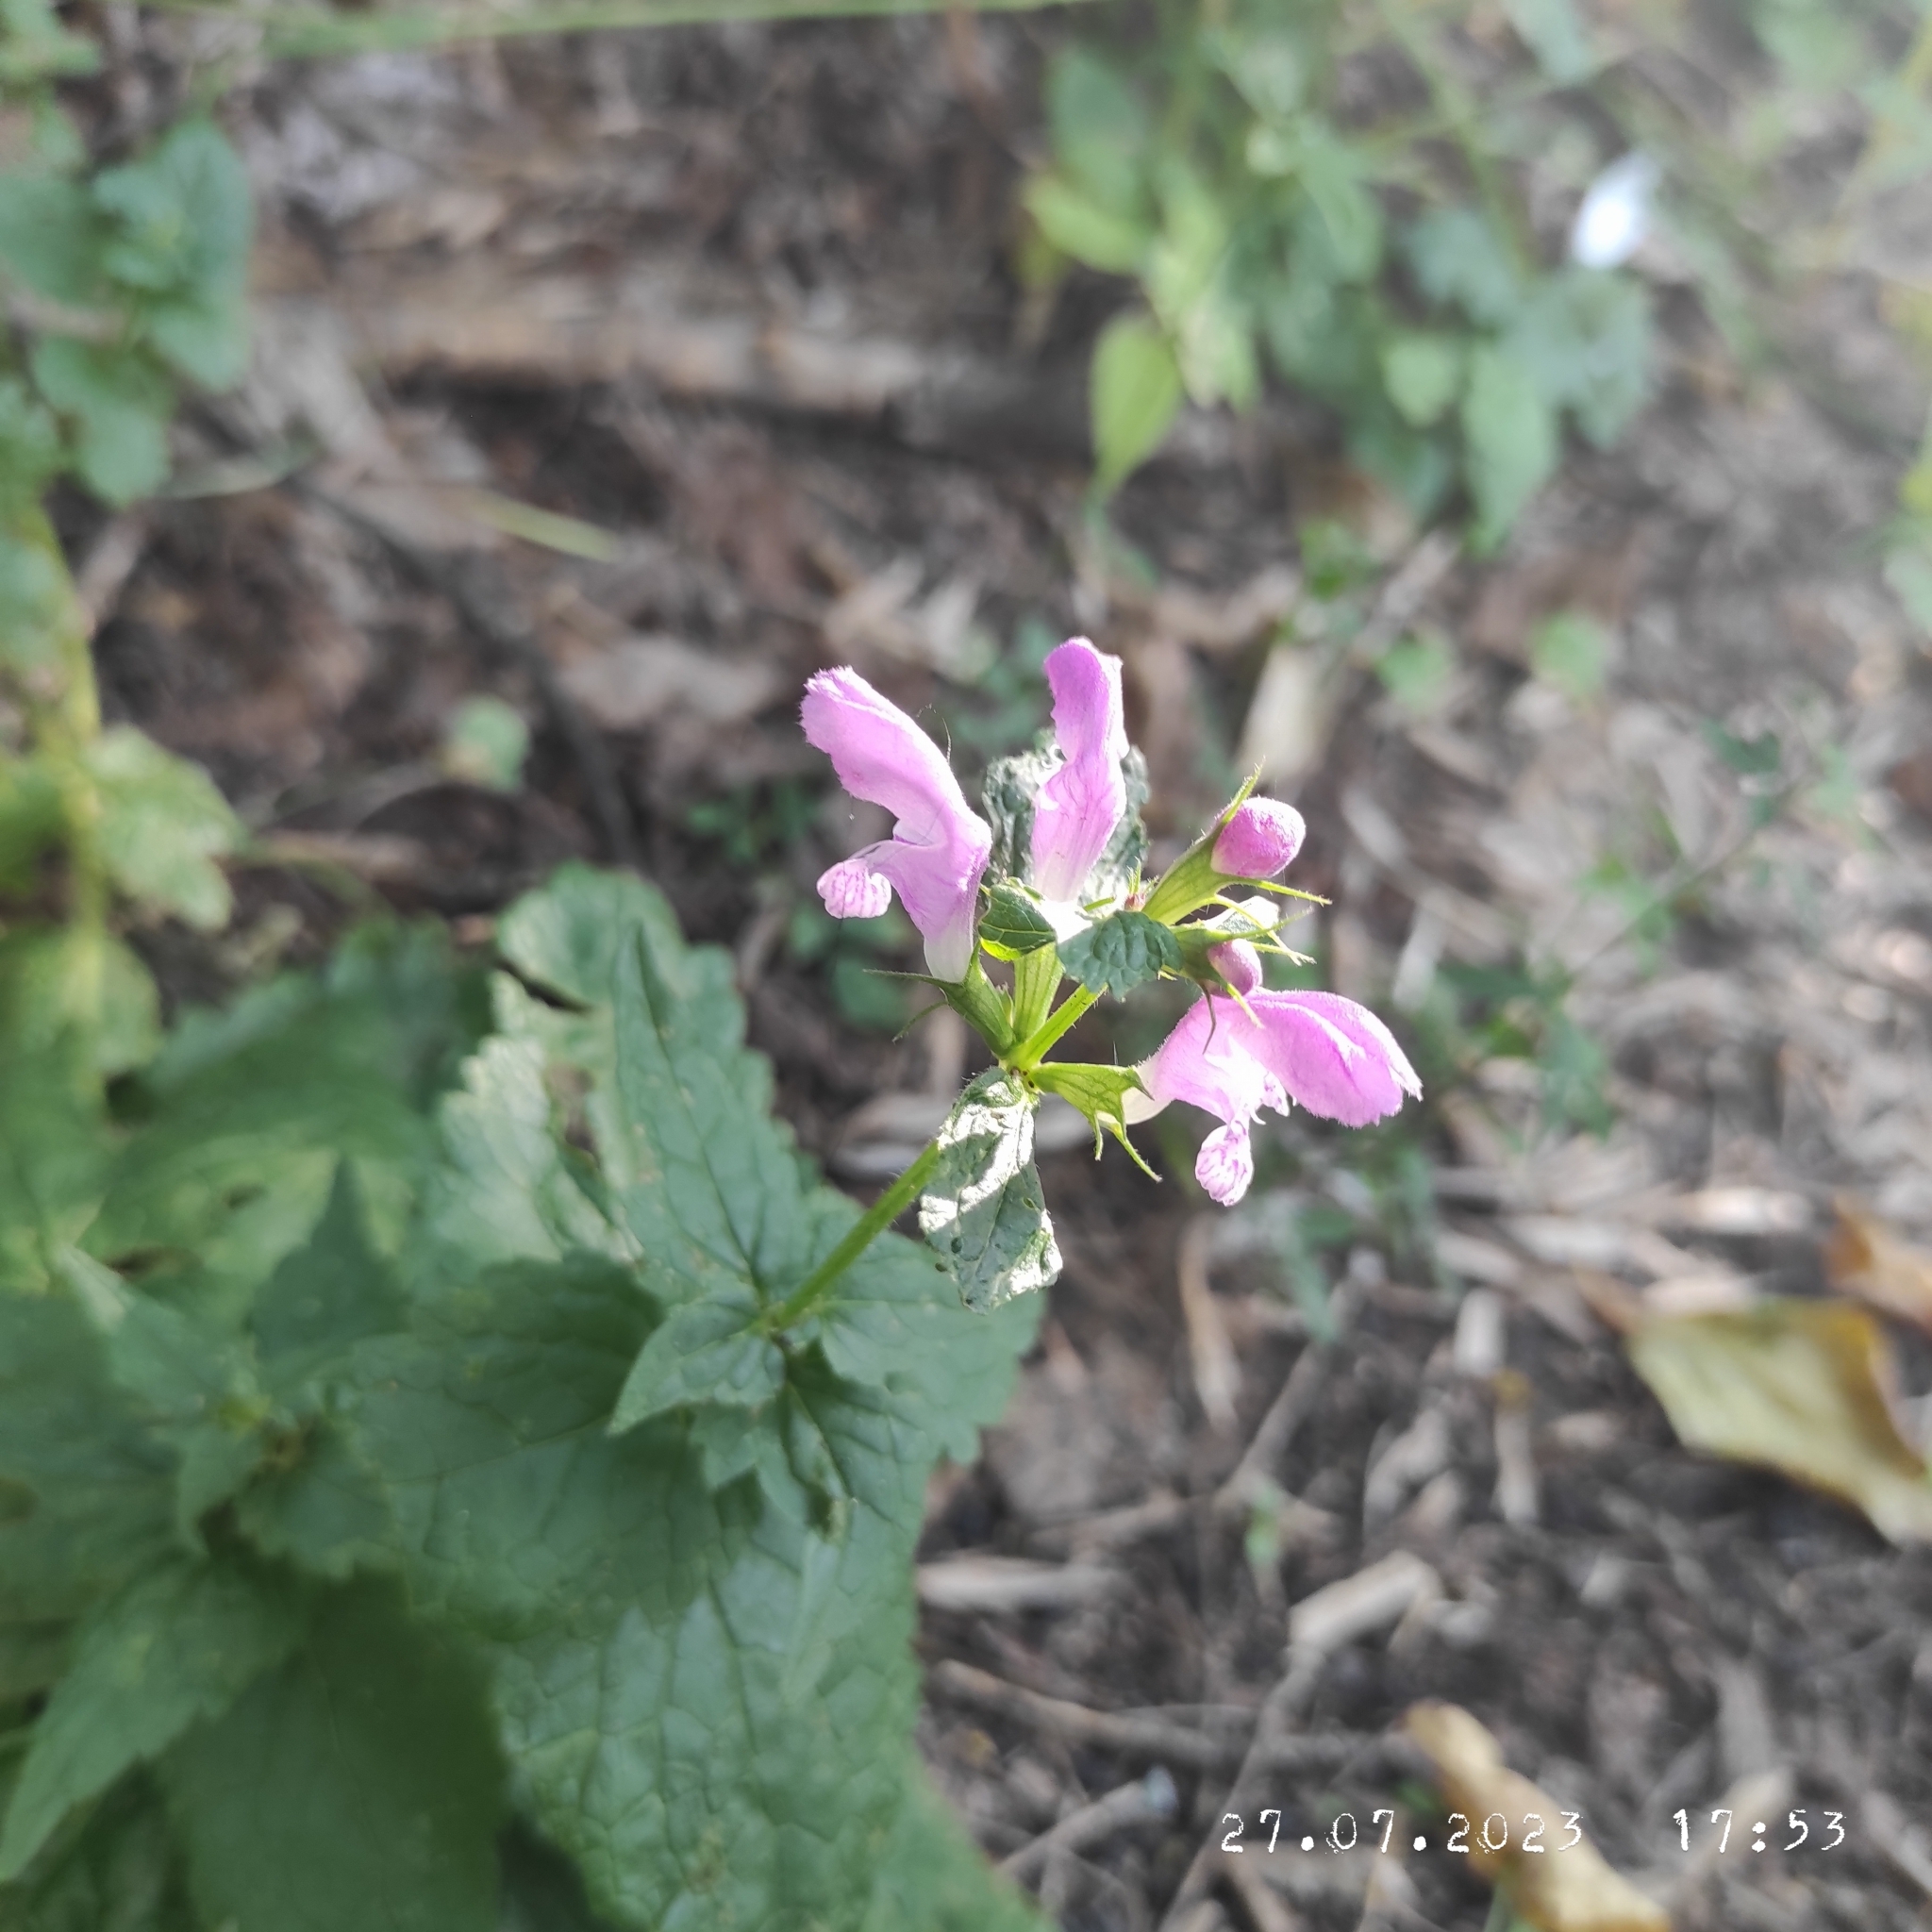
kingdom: Plantae
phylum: Tracheophyta
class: Magnoliopsida
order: Lamiales
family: Lamiaceae
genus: Lamium
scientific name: Lamium maculatum
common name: Spotted dead-nettle
